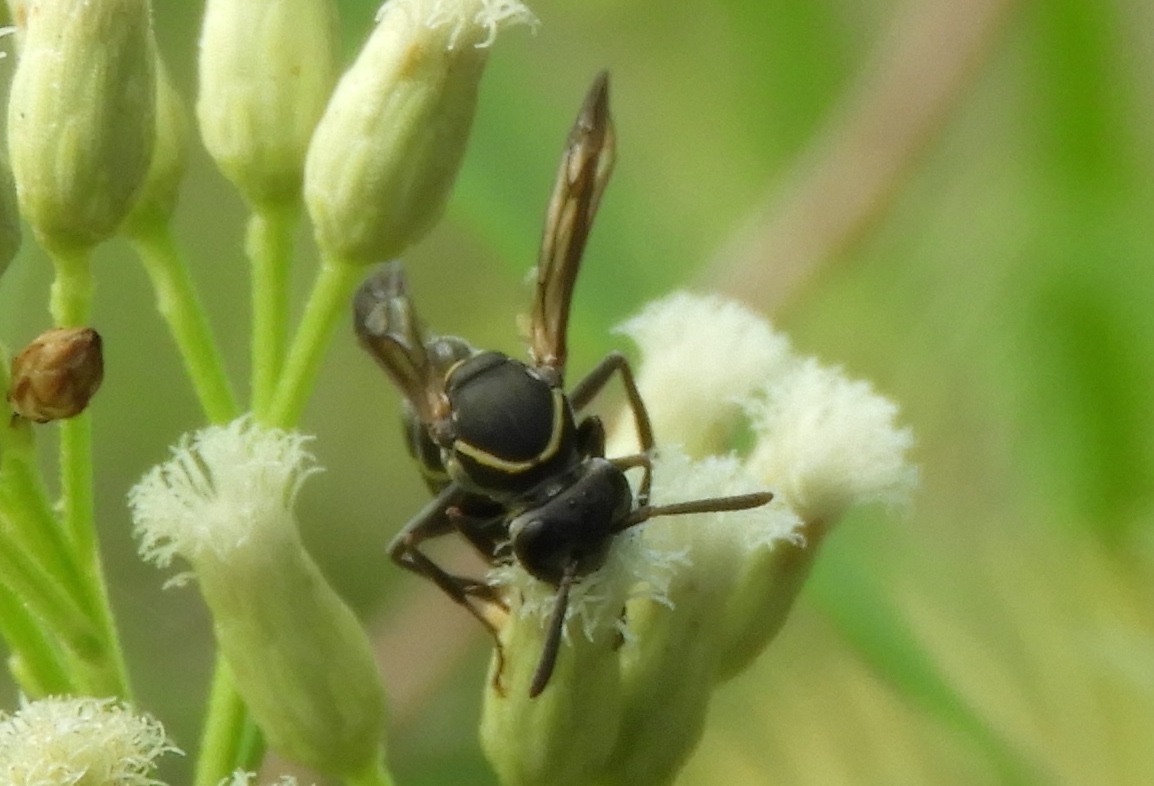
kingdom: Animalia
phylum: Arthropoda
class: Insecta
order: Hymenoptera
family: Vespidae
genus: Myrapetra
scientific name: Myrapetra
